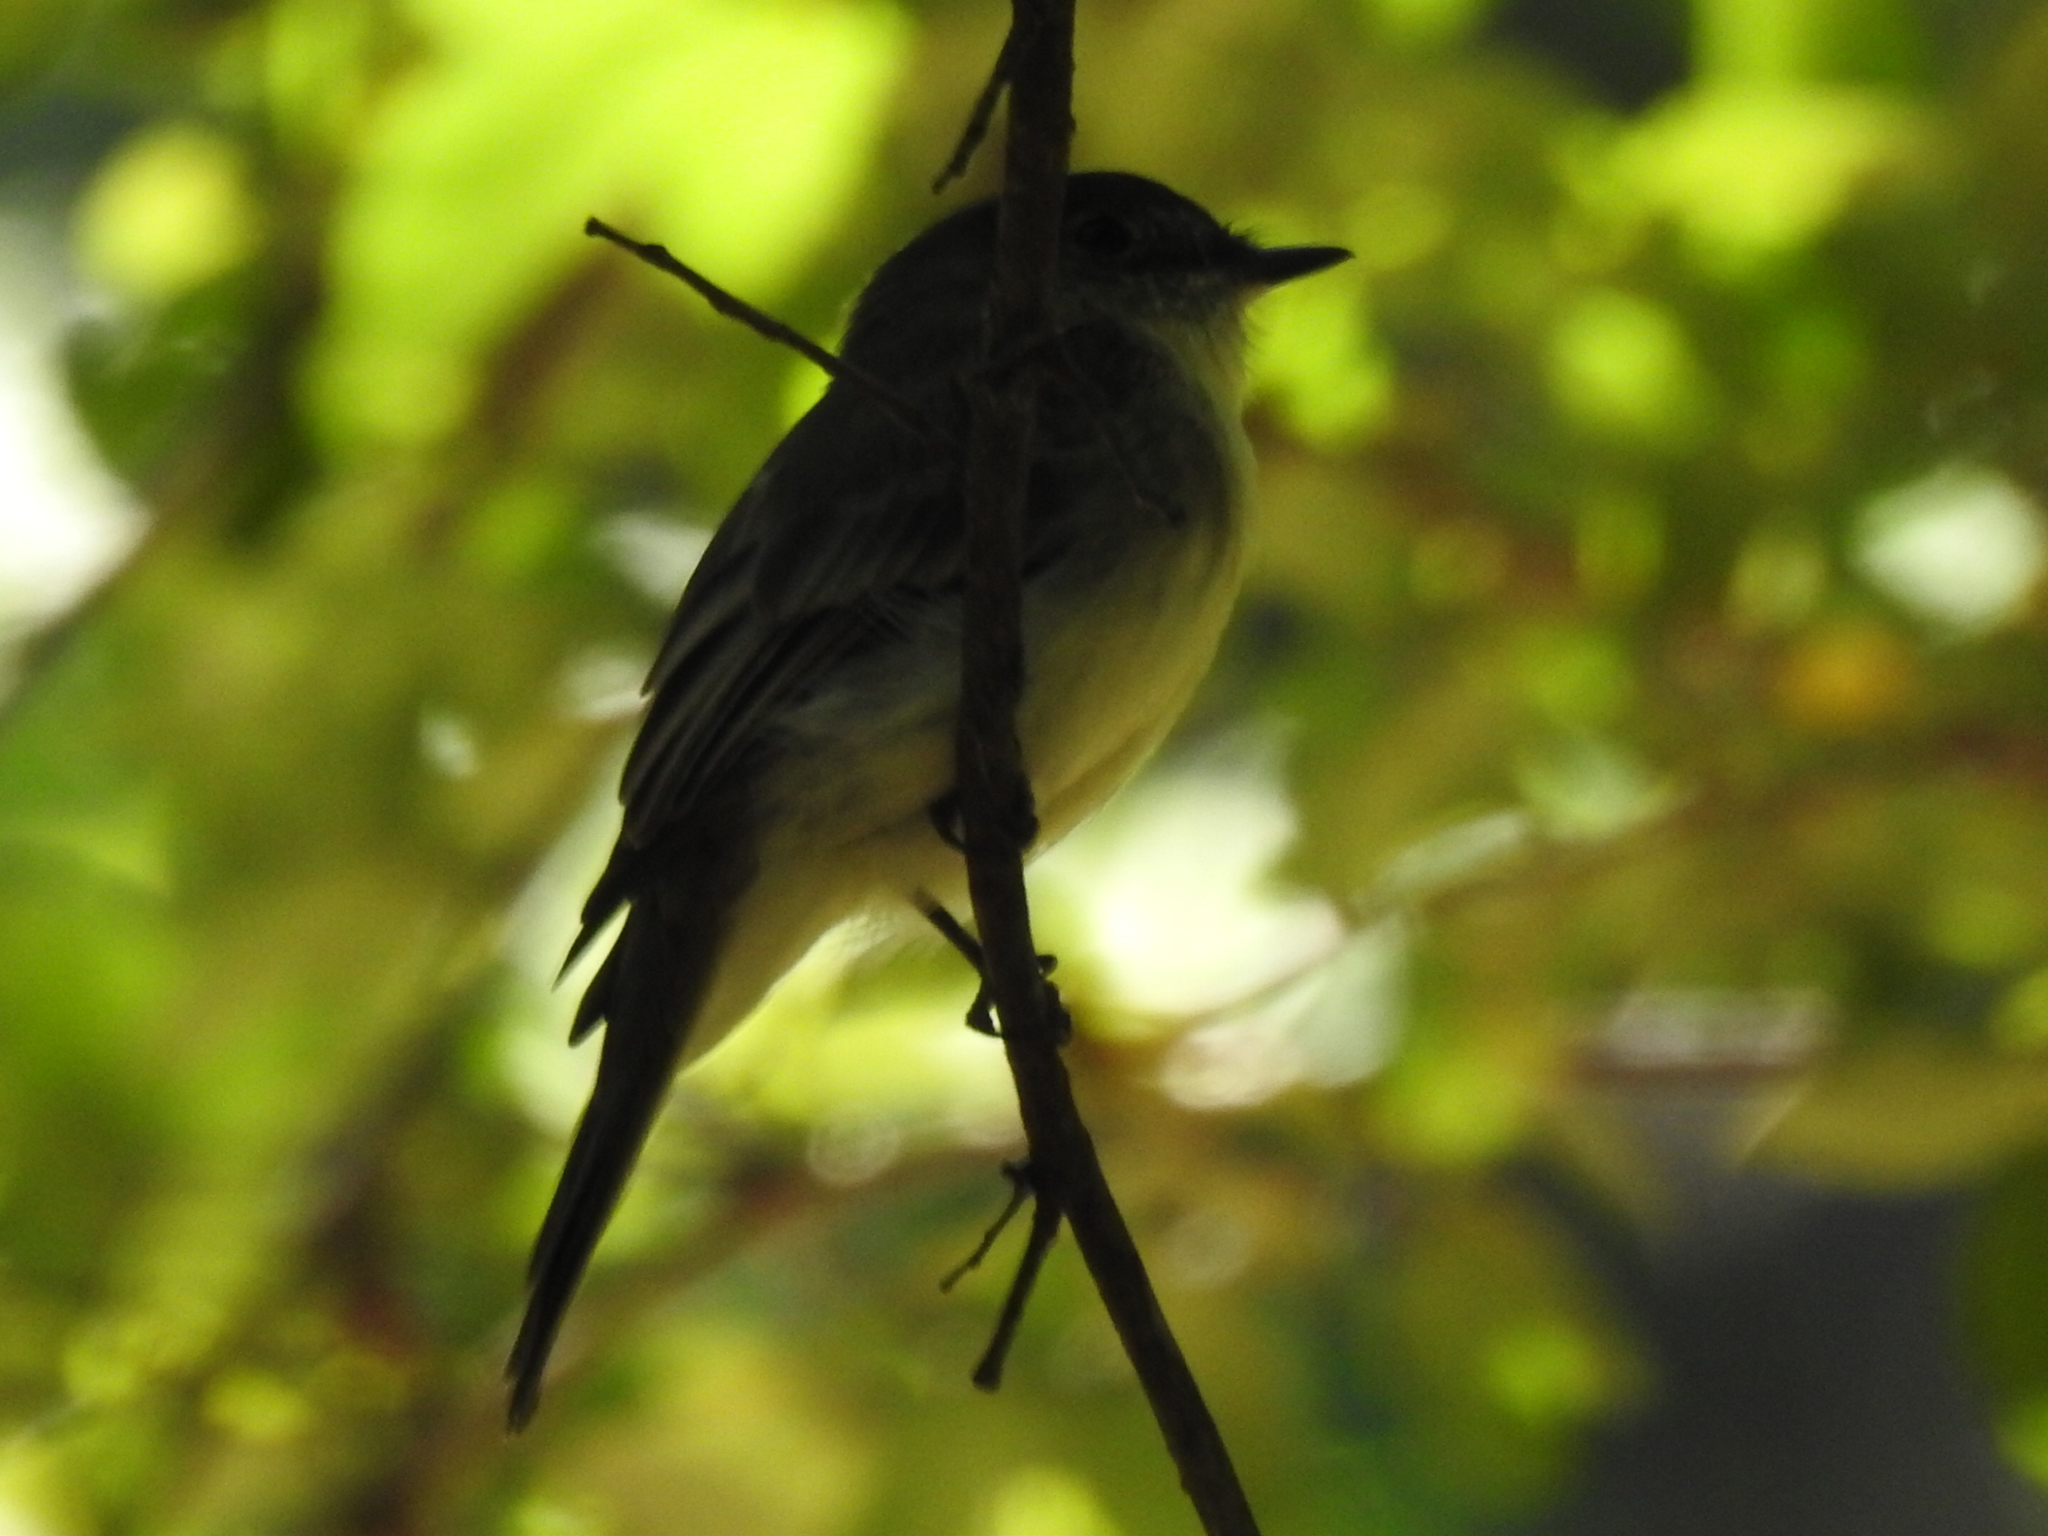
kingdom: Animalia
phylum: Chordata
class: Aves
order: Passeriformes
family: Tyrannidae
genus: Sayornis
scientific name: Sayornis phoebe
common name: Eastern phoebe
